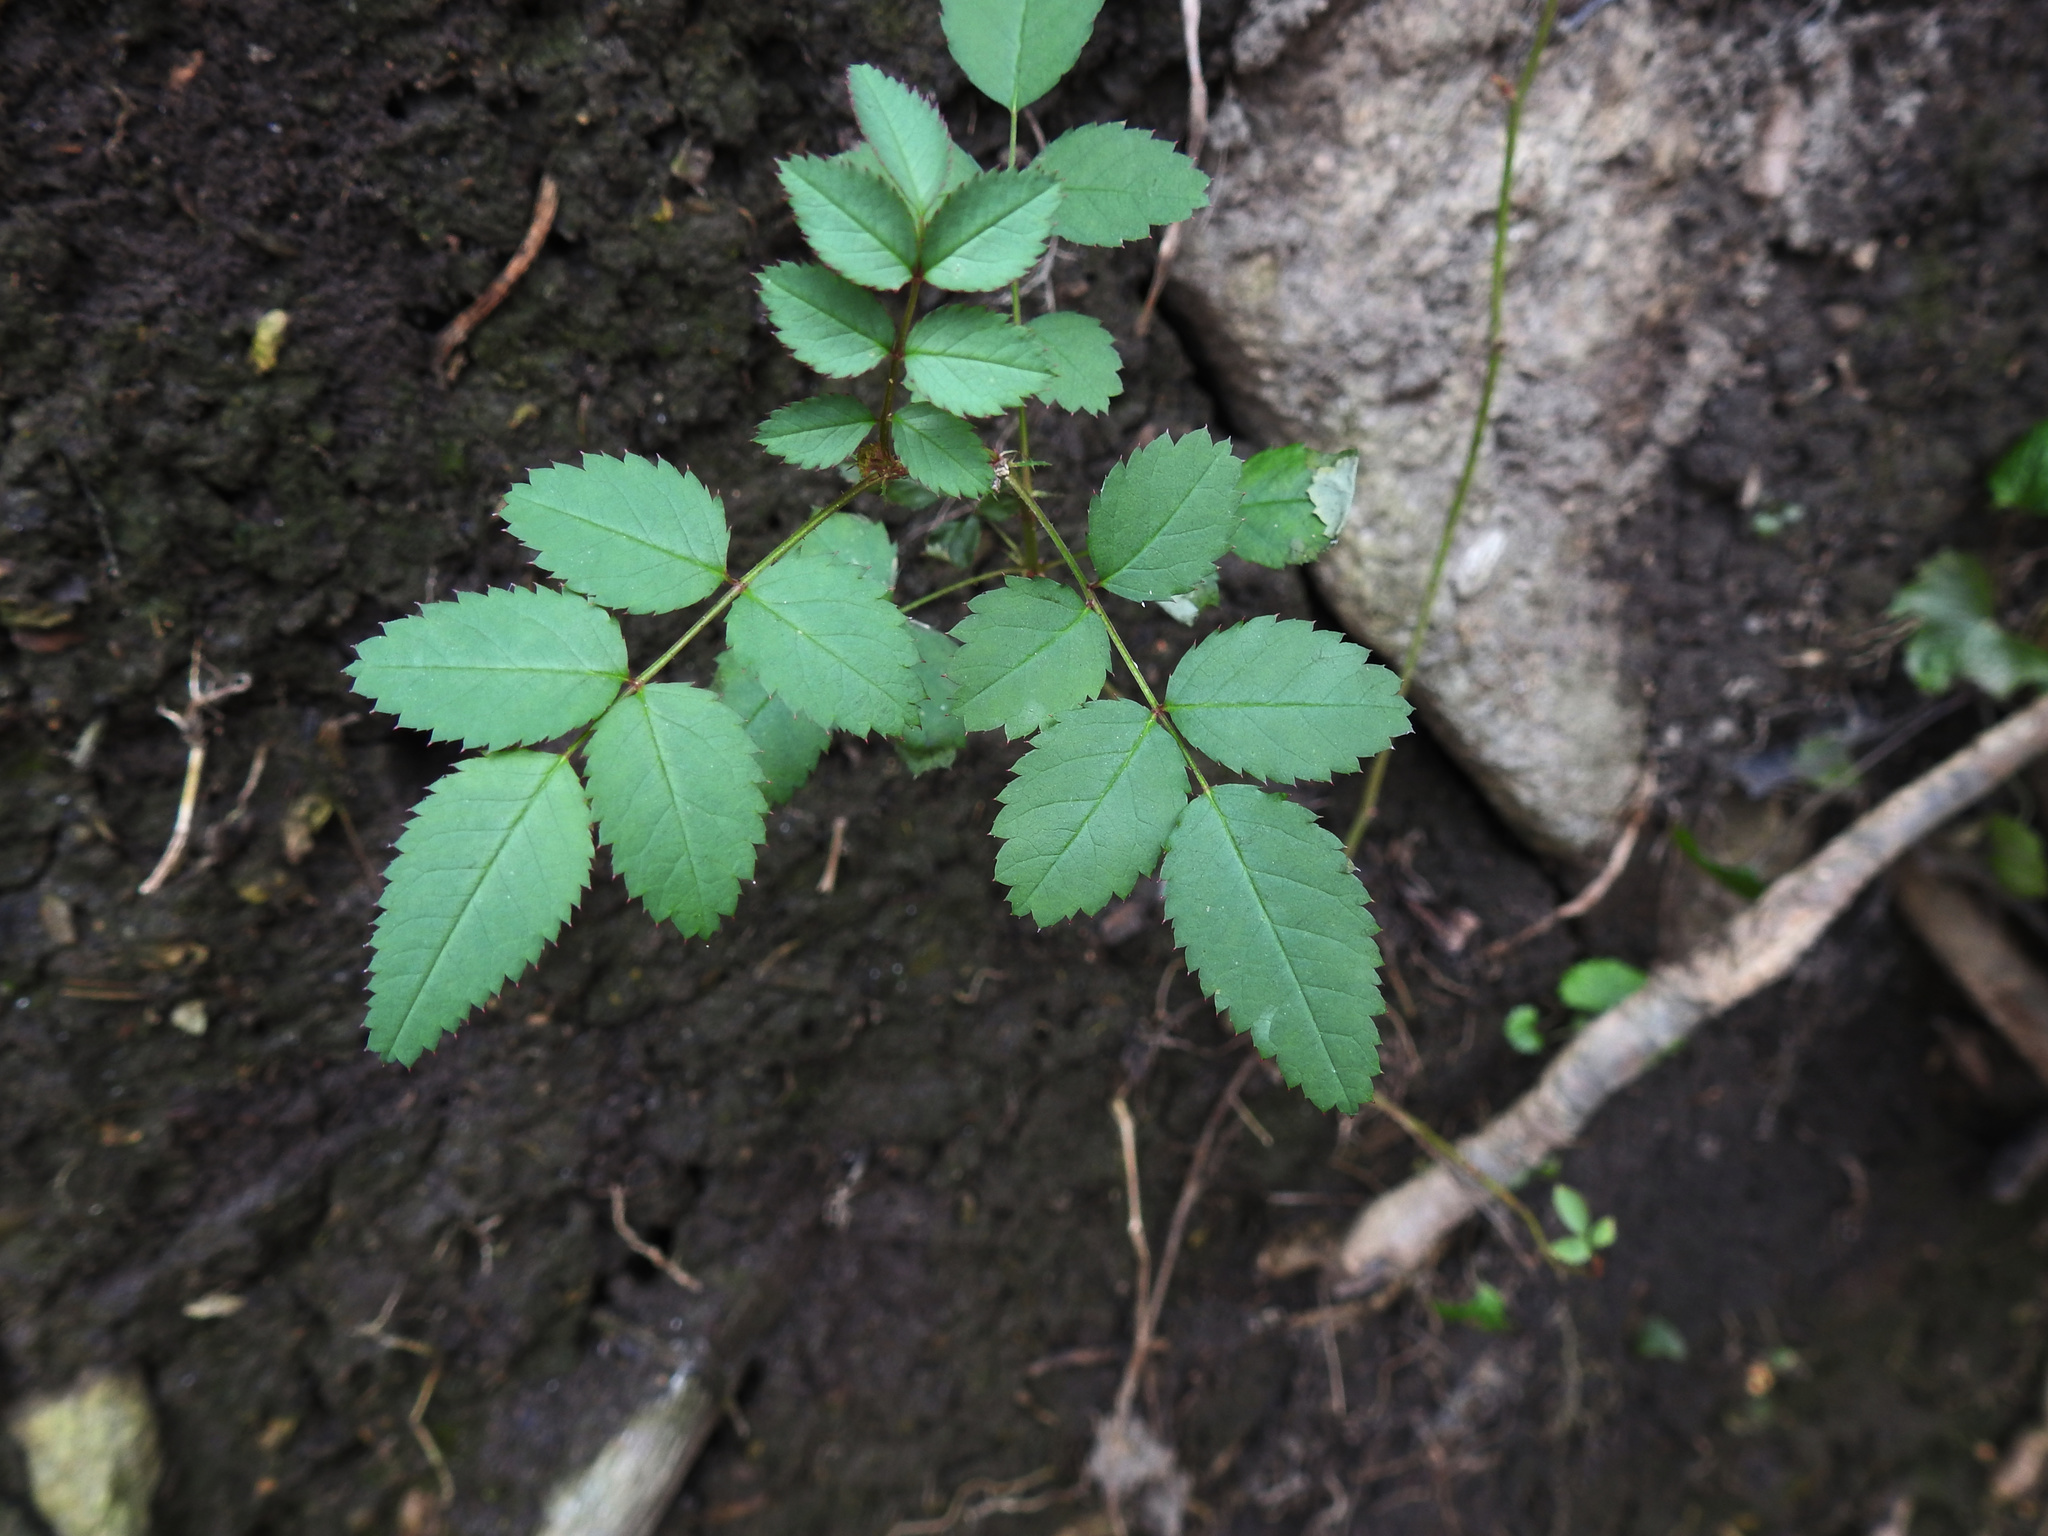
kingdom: Plantae
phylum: Tracheophyta
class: Magnoliopsida
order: Rosales
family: Rosaceae
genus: Rosa
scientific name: Rosa multiflora
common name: Multiflora rose
